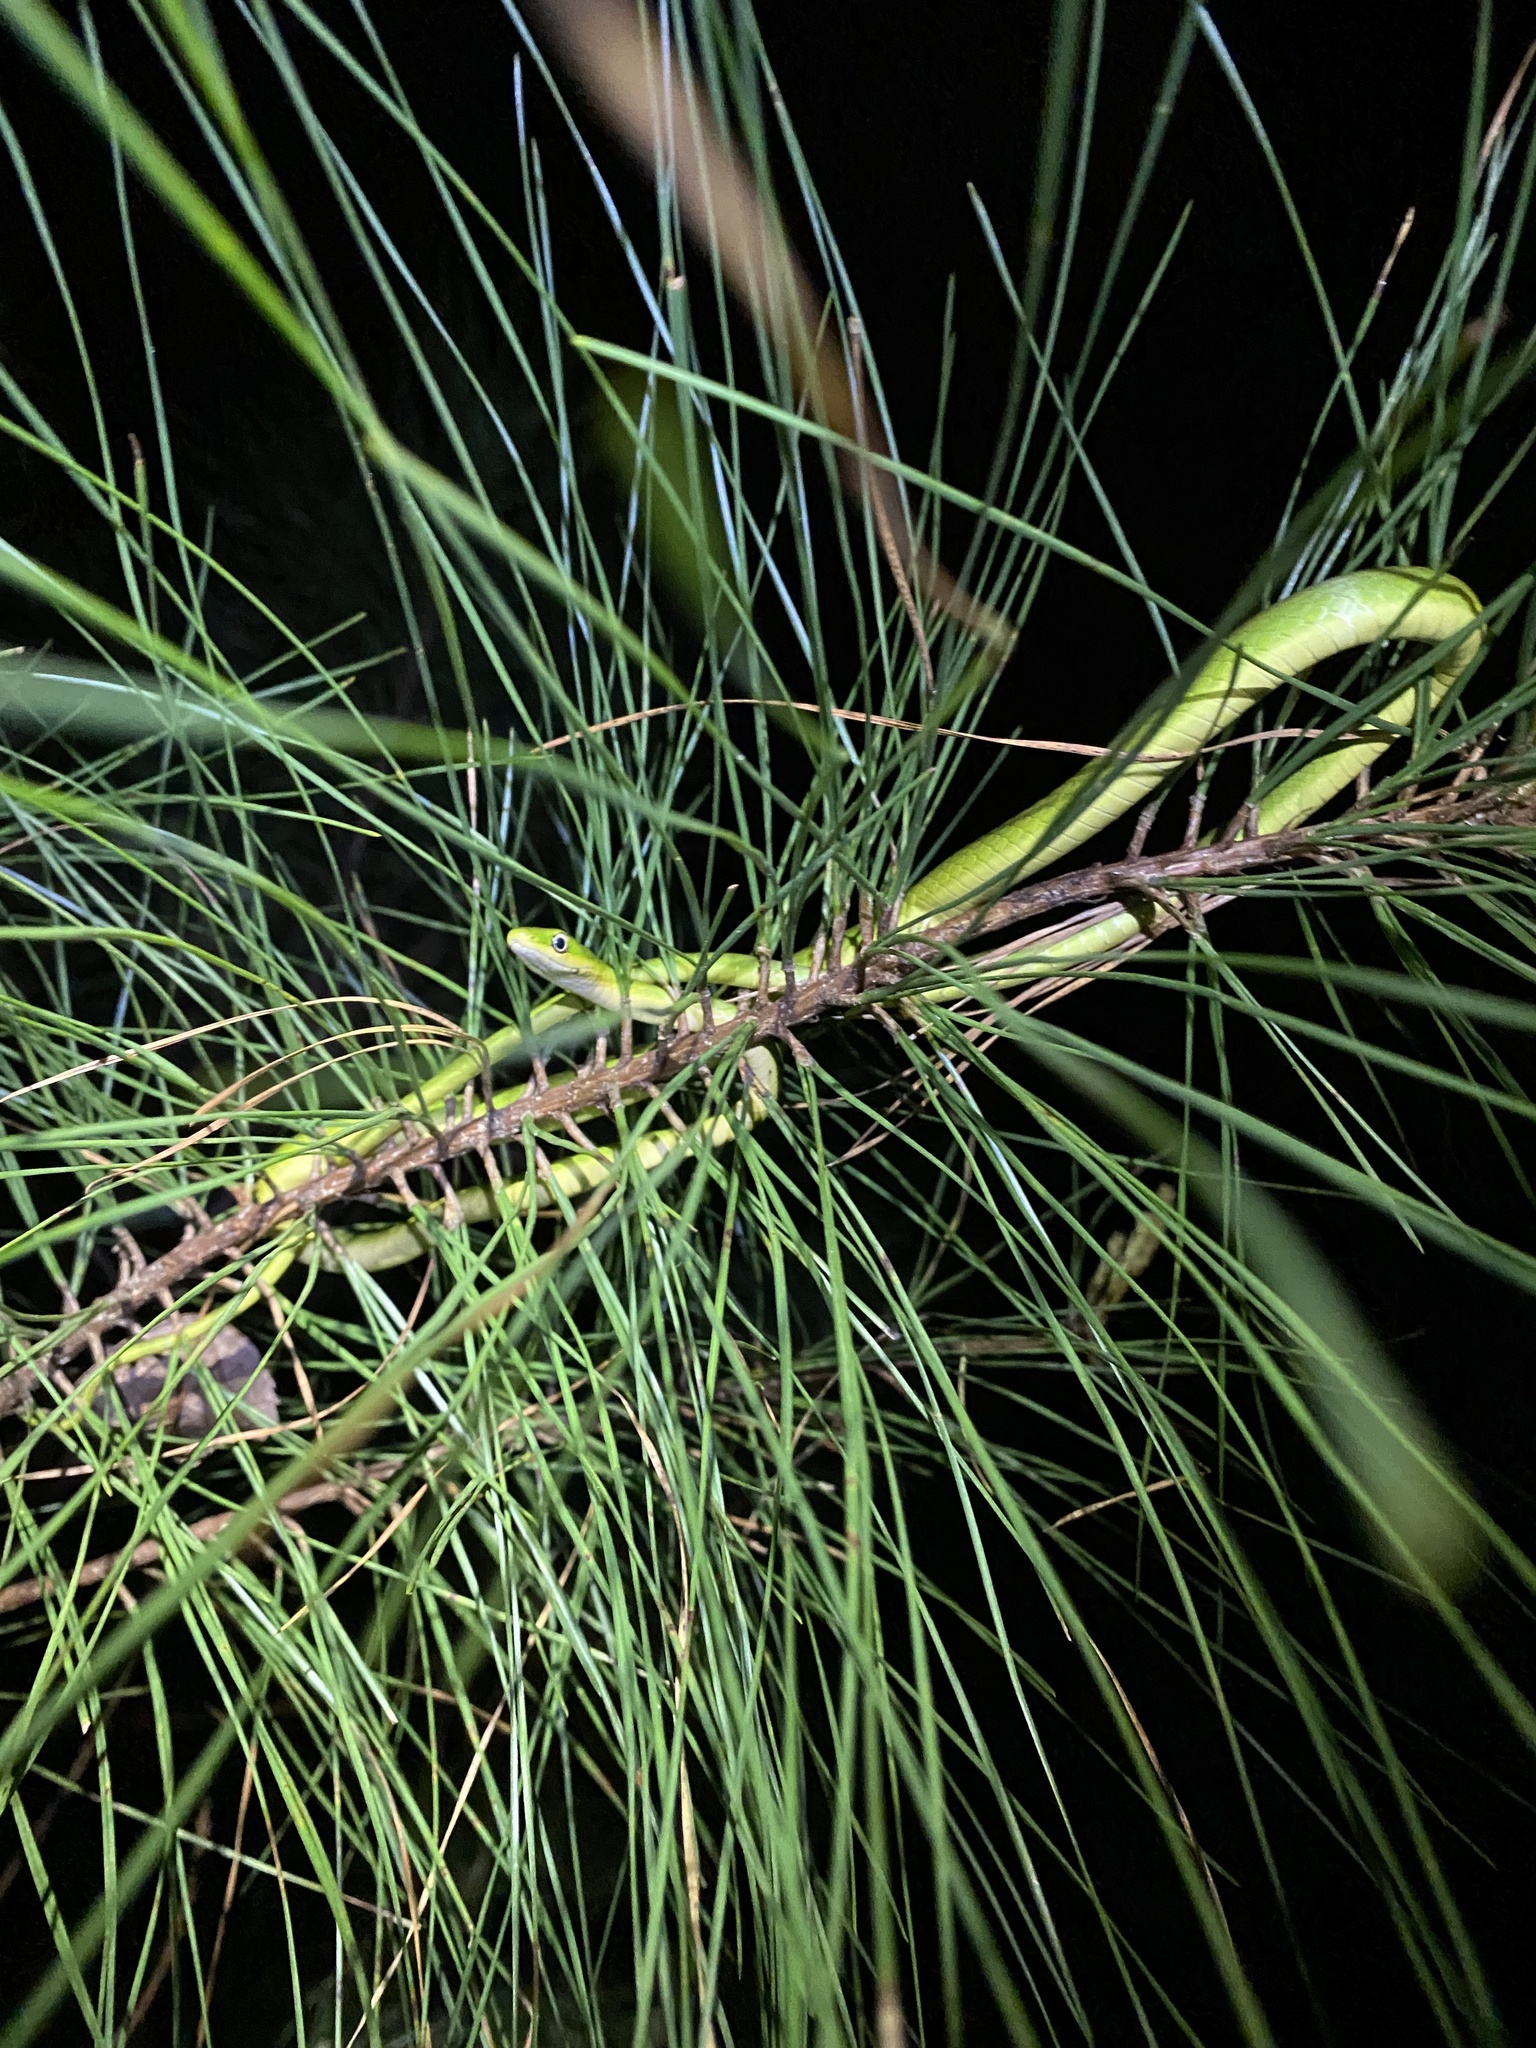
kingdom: Animalia
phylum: Chordata
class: Squamata
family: Colubridae
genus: Opheodrys
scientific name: Opheodrys aestivus
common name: Rough greensnake
